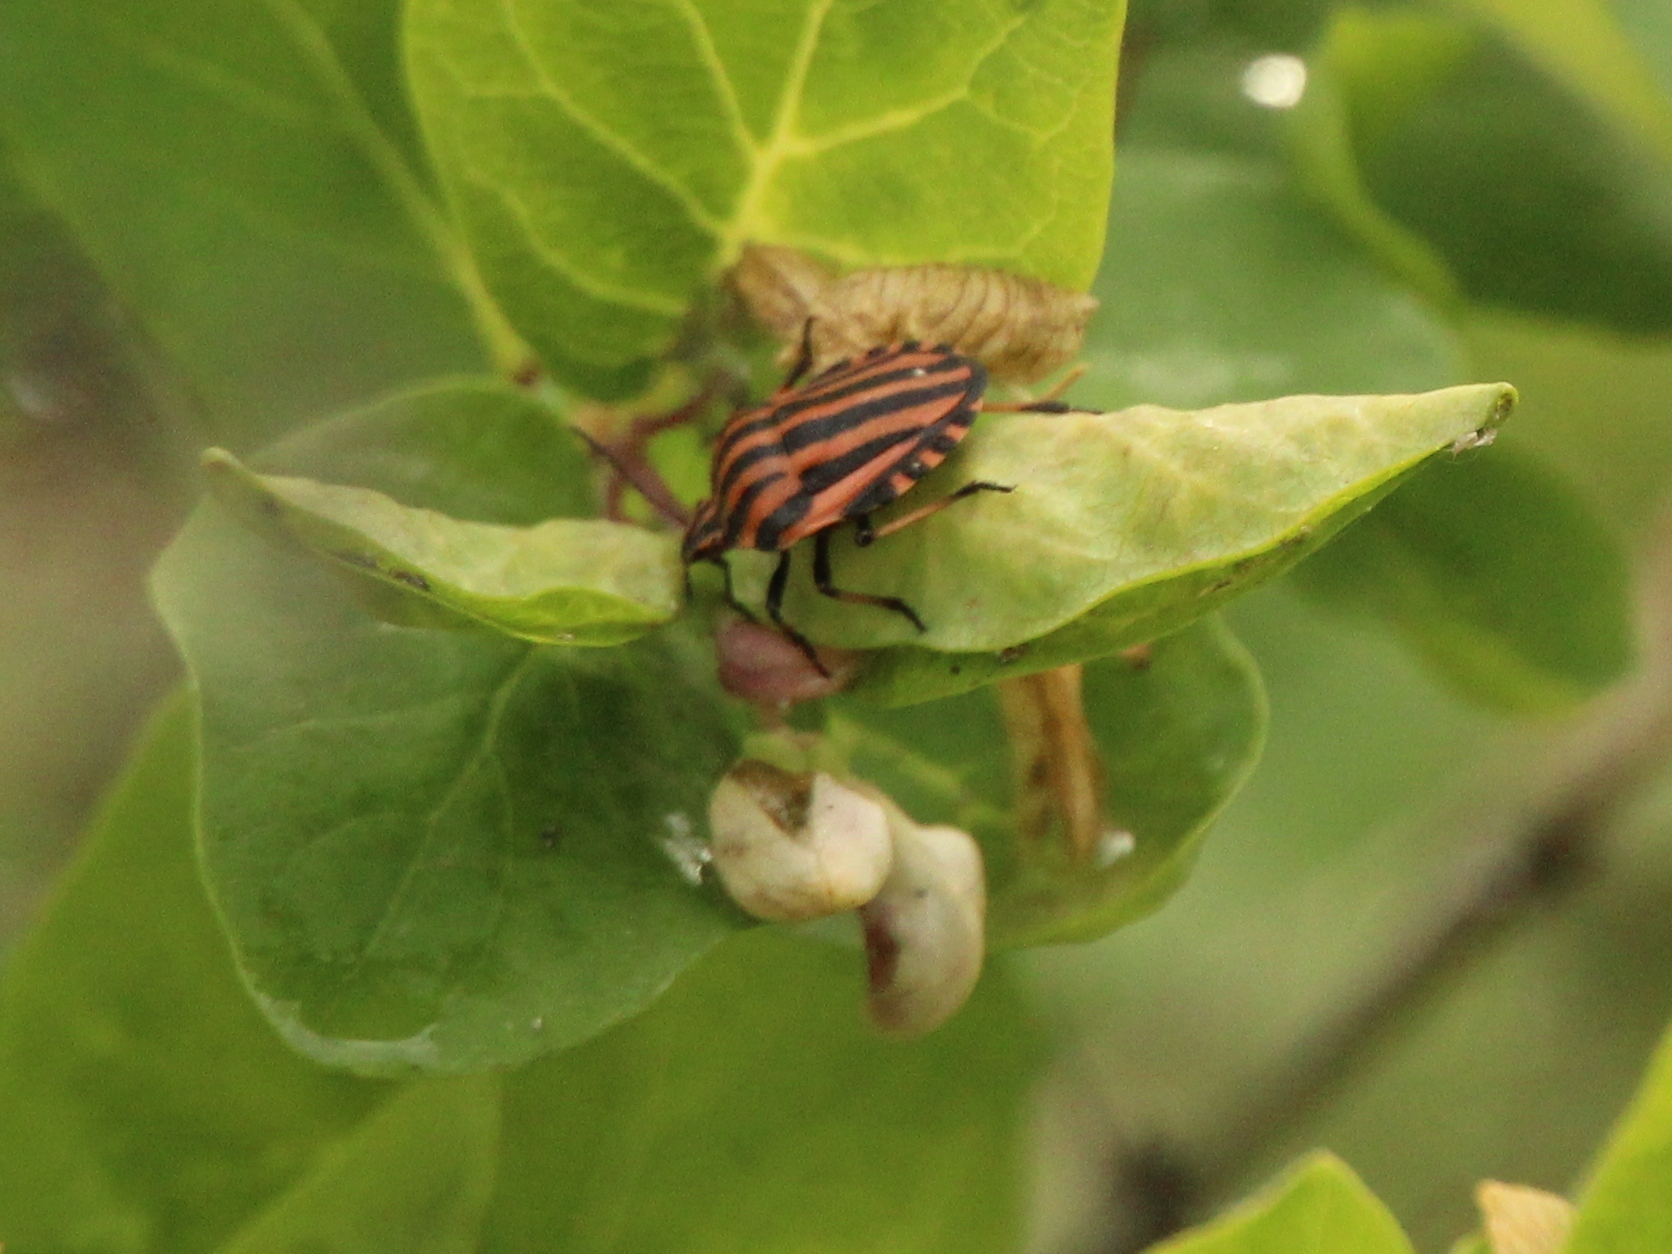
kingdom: Animalia
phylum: Arthropoda
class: Insecta
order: Hemiptera
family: Pentatomidae
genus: Graphosoma
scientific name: Graphosoma italicum
